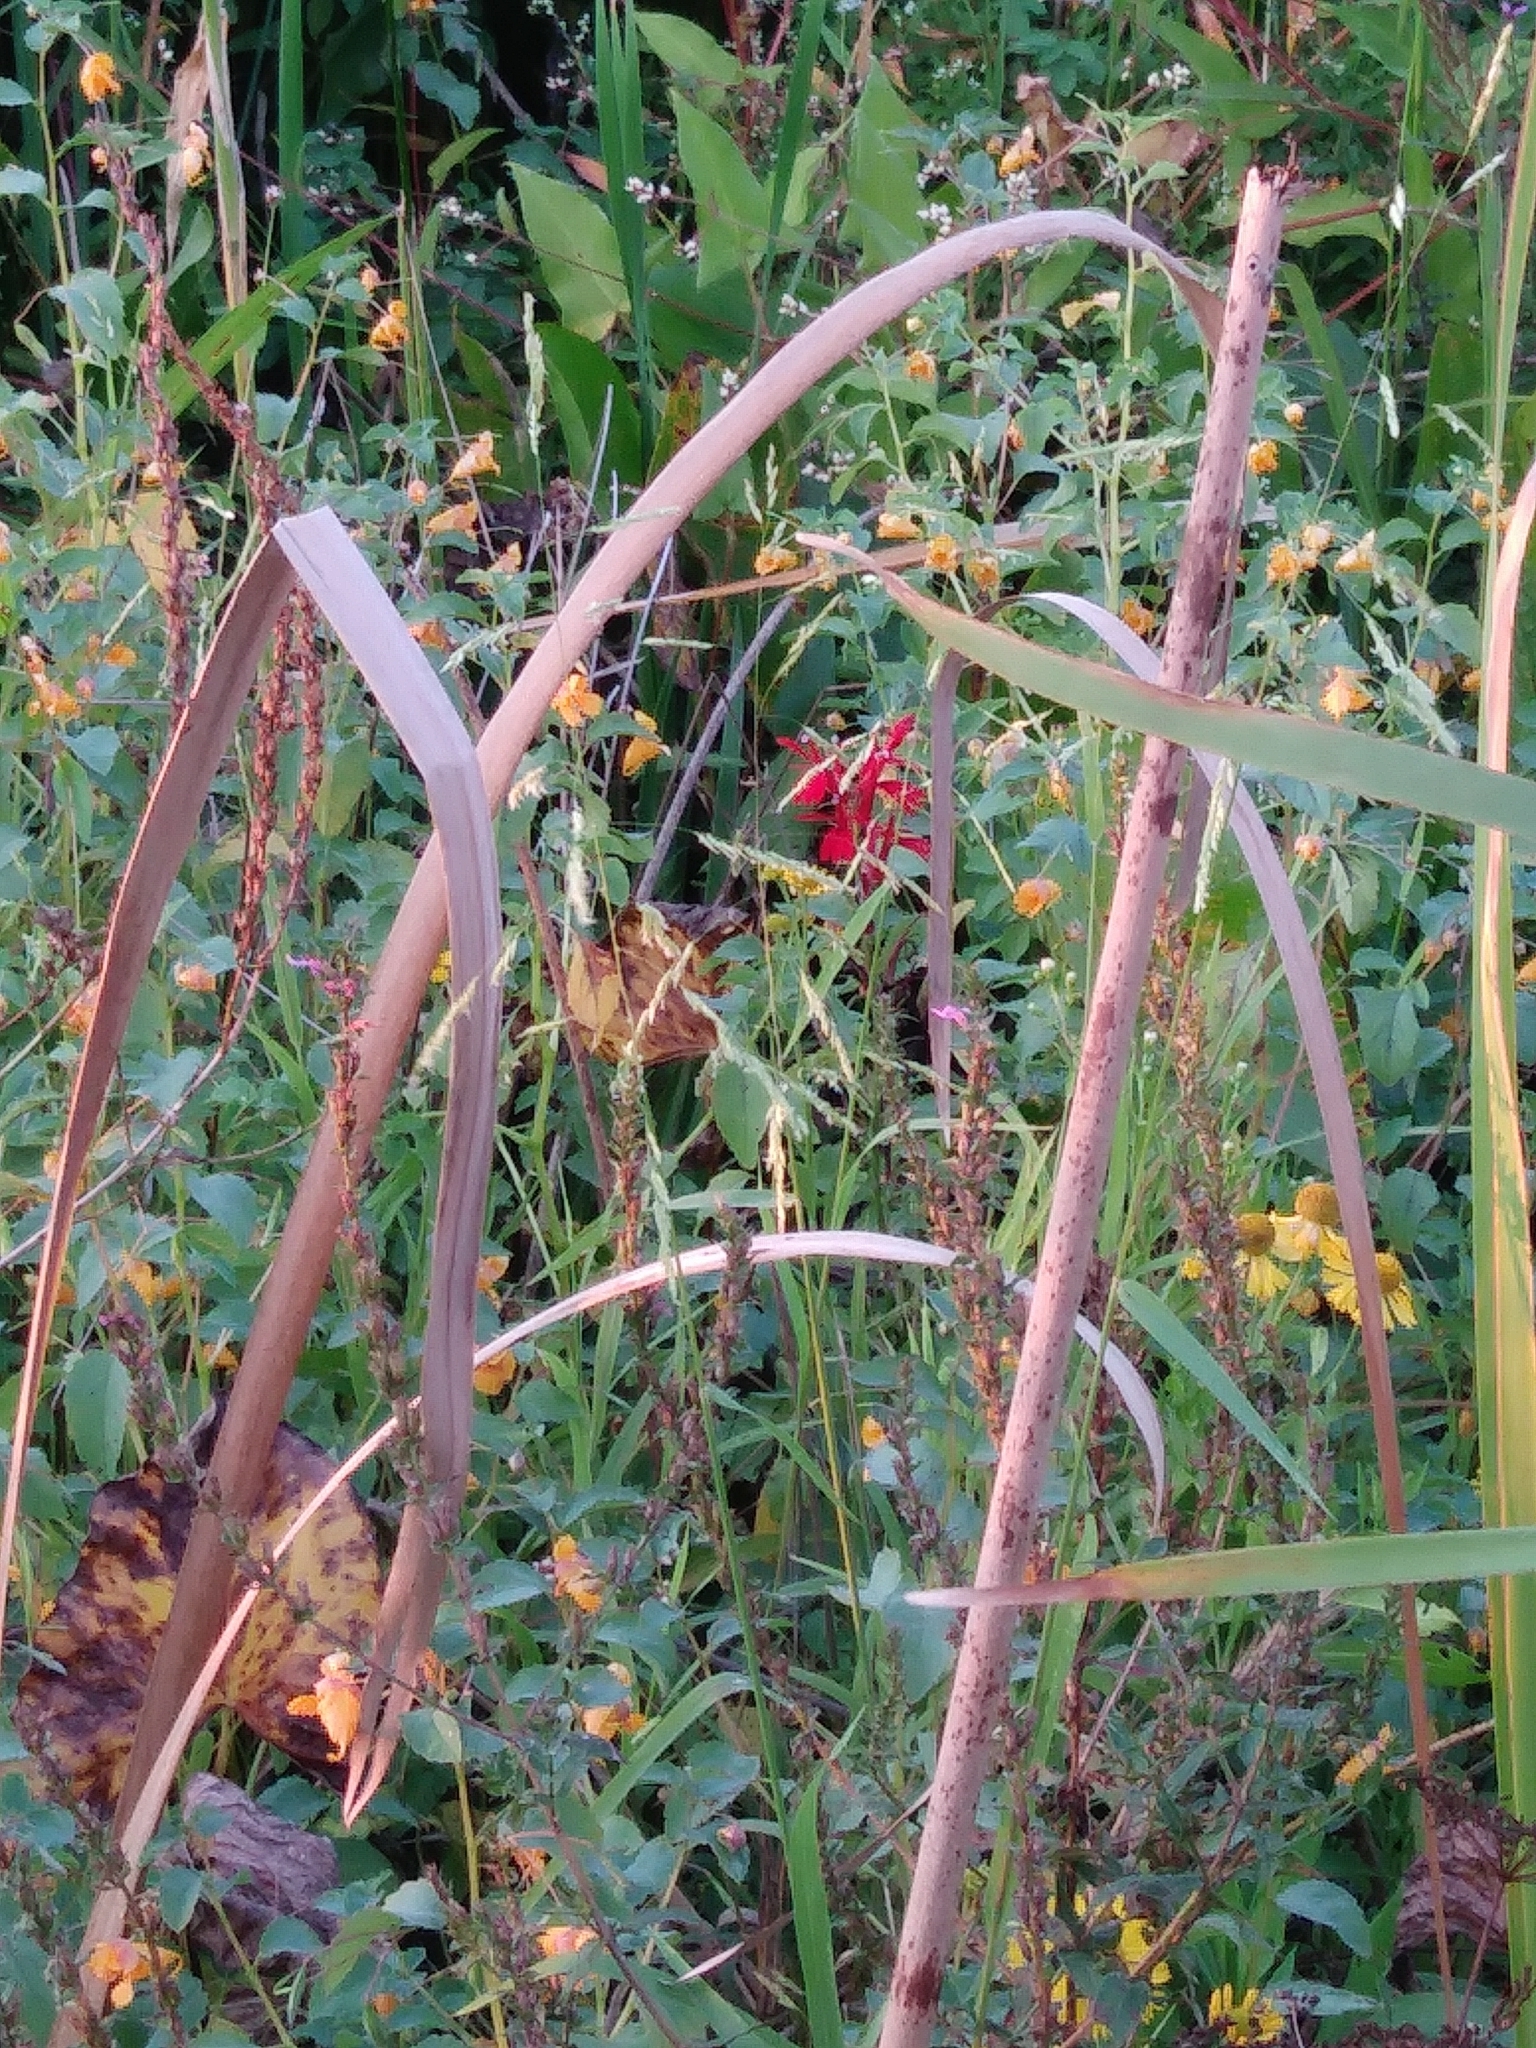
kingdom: Plantae
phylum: Tracheophyta
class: Magnoliopsida
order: Asterales
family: Campanulaceae
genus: Lobelia
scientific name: Lobelia cardinalis
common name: Cardinal flower
